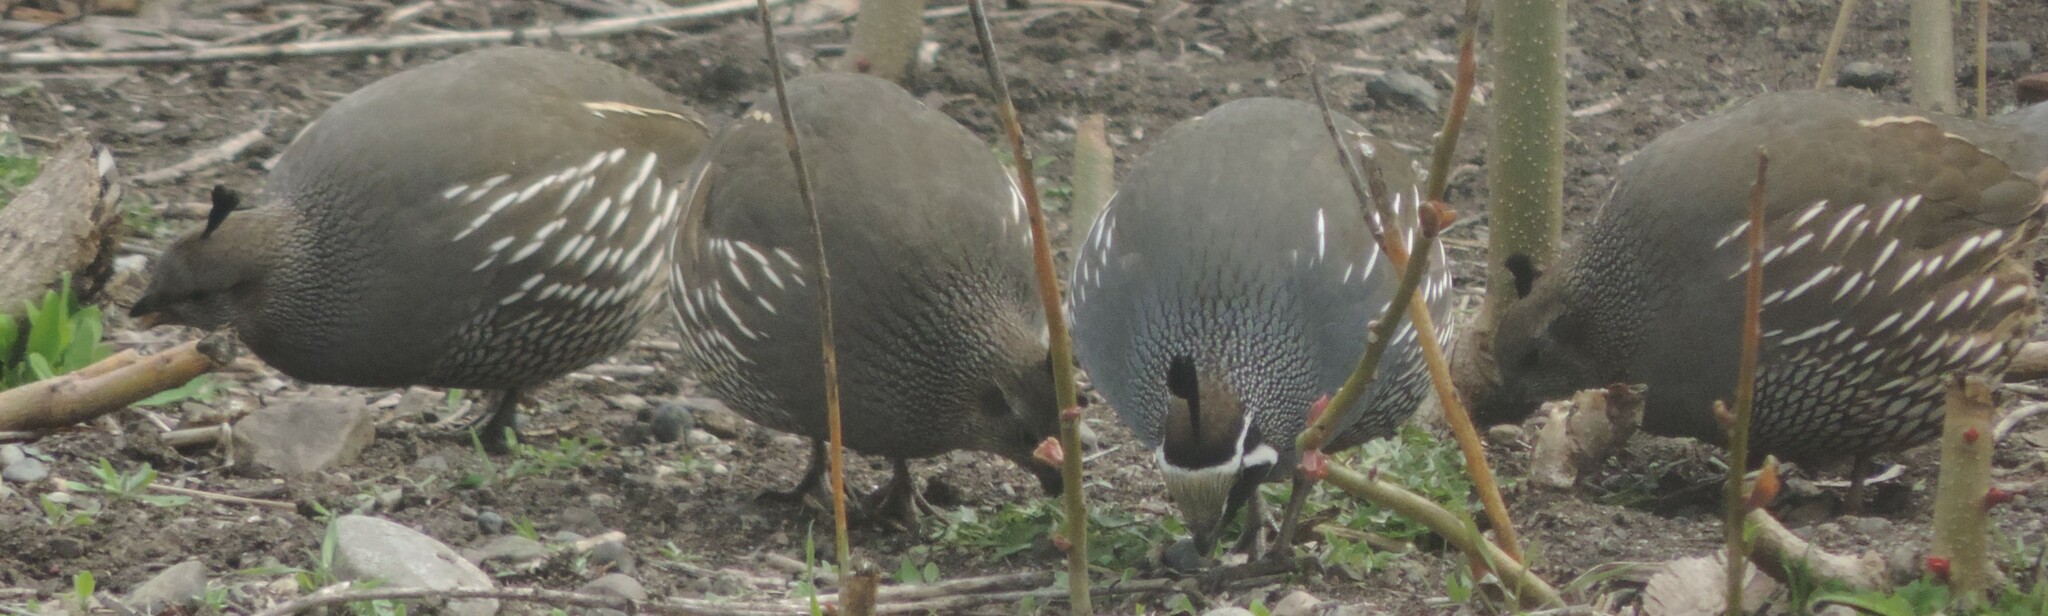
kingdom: Animalia
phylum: Chordata
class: Aves
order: Galliformes
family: Odontophoridae
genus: Callipepla
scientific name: Callipepla californica
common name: California quail
